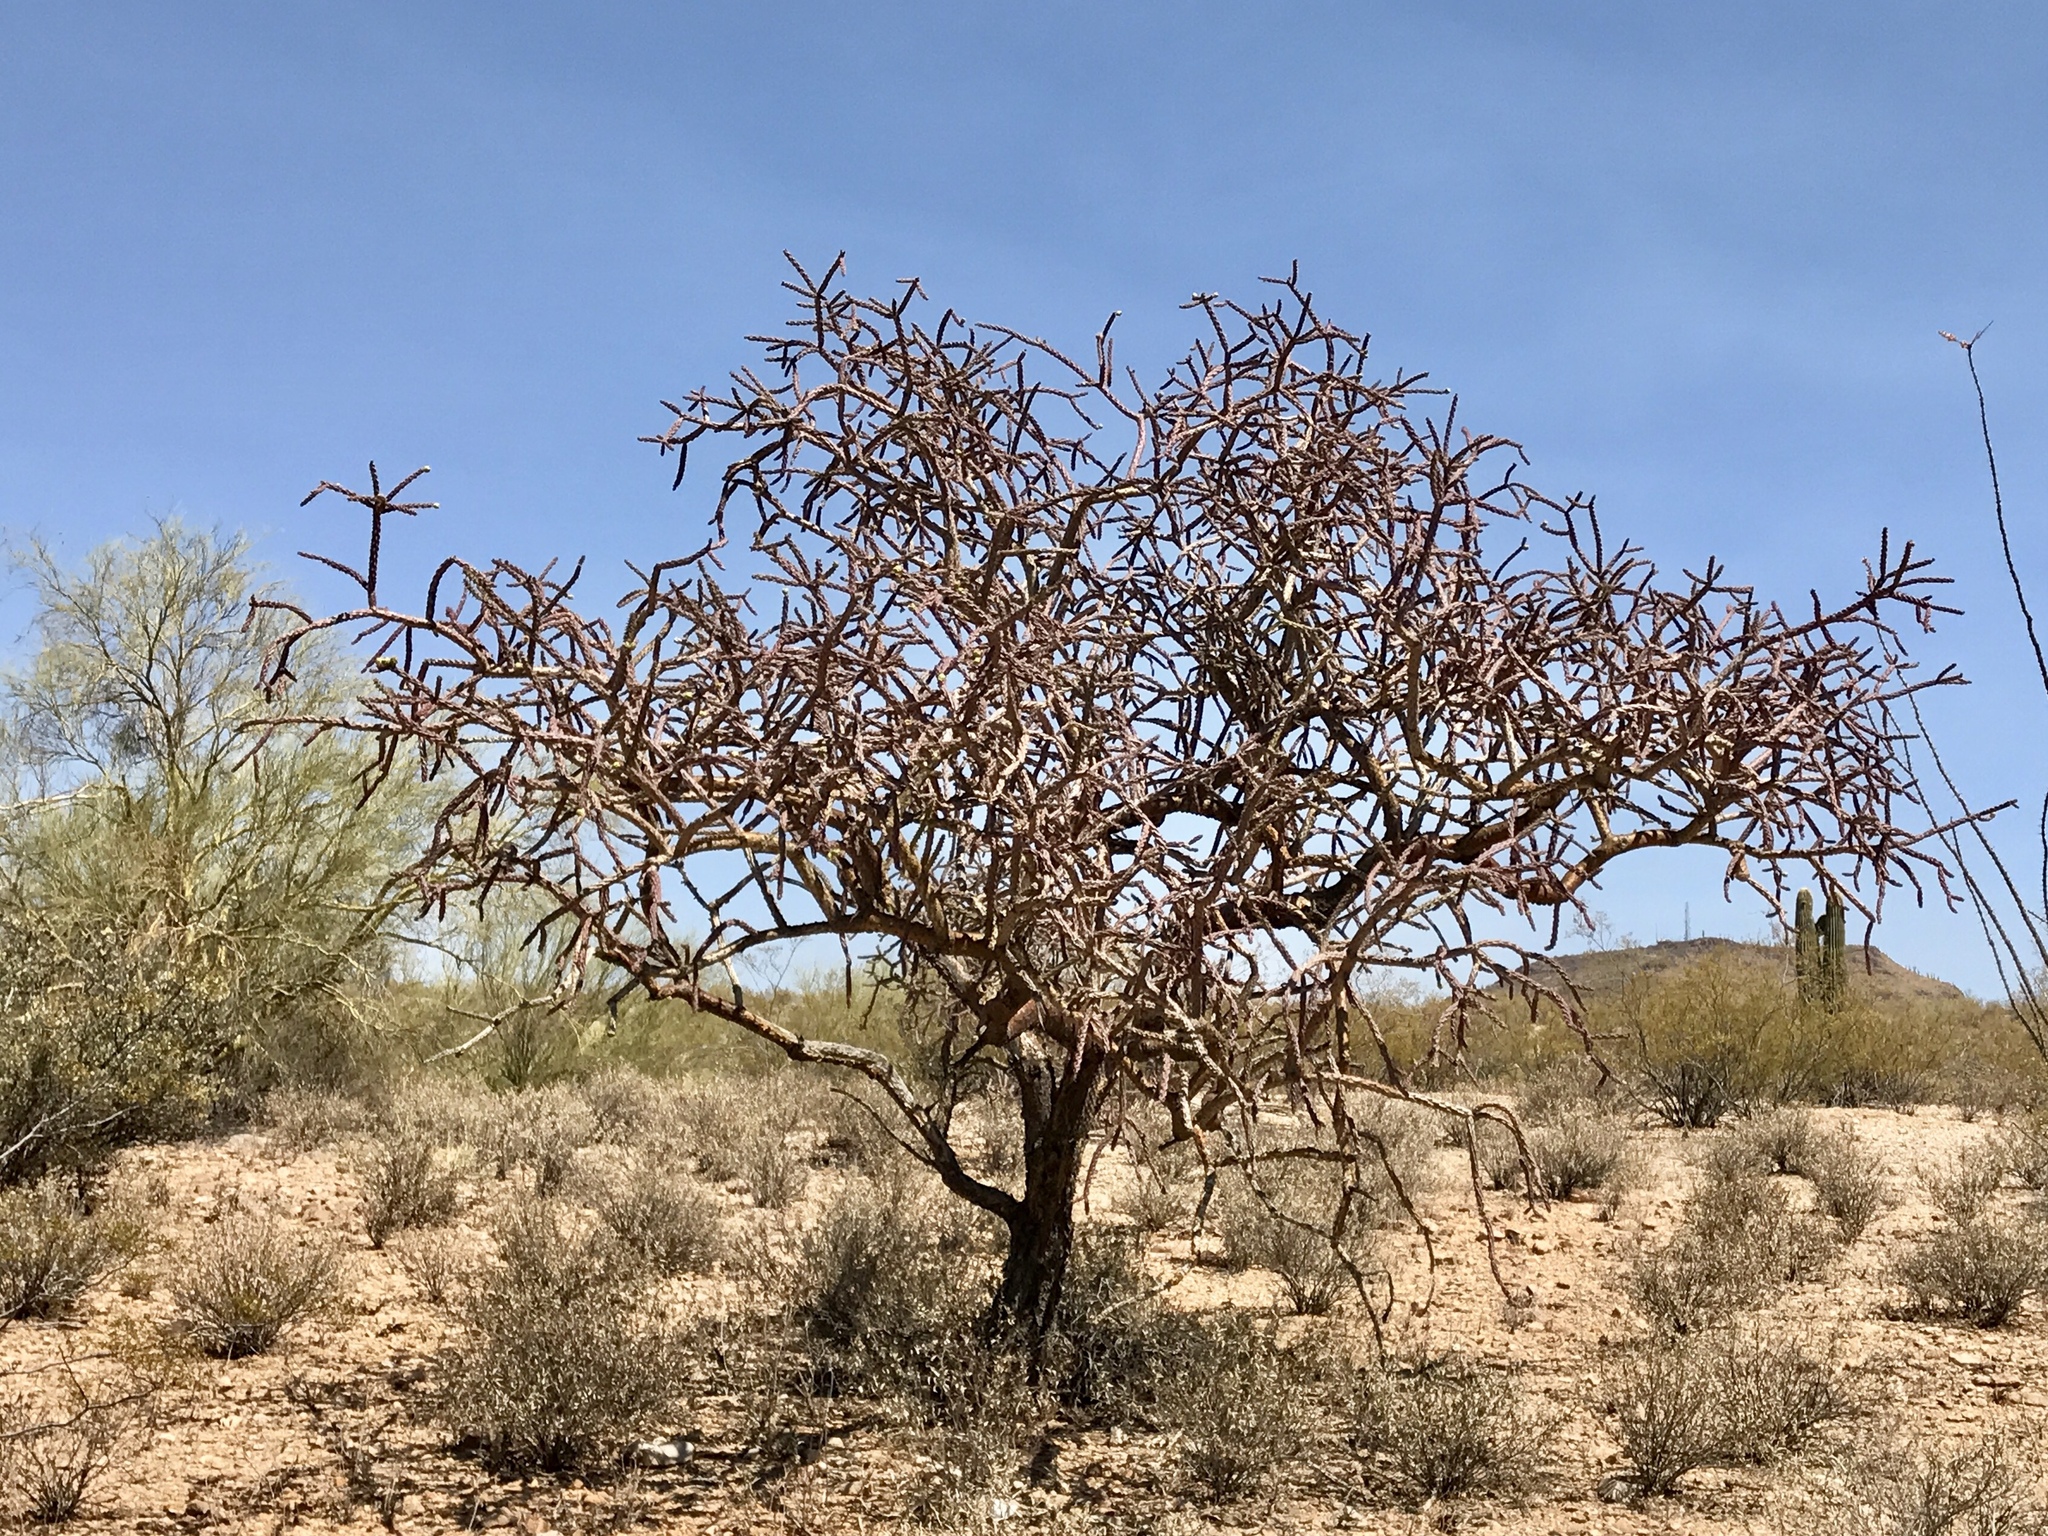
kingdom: Plantae
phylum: Tracheophyta
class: Magnoliopsida
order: Caryophyllales
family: Cactaceae
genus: Cylindropuntia
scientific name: Cylindropuntia thurberi
